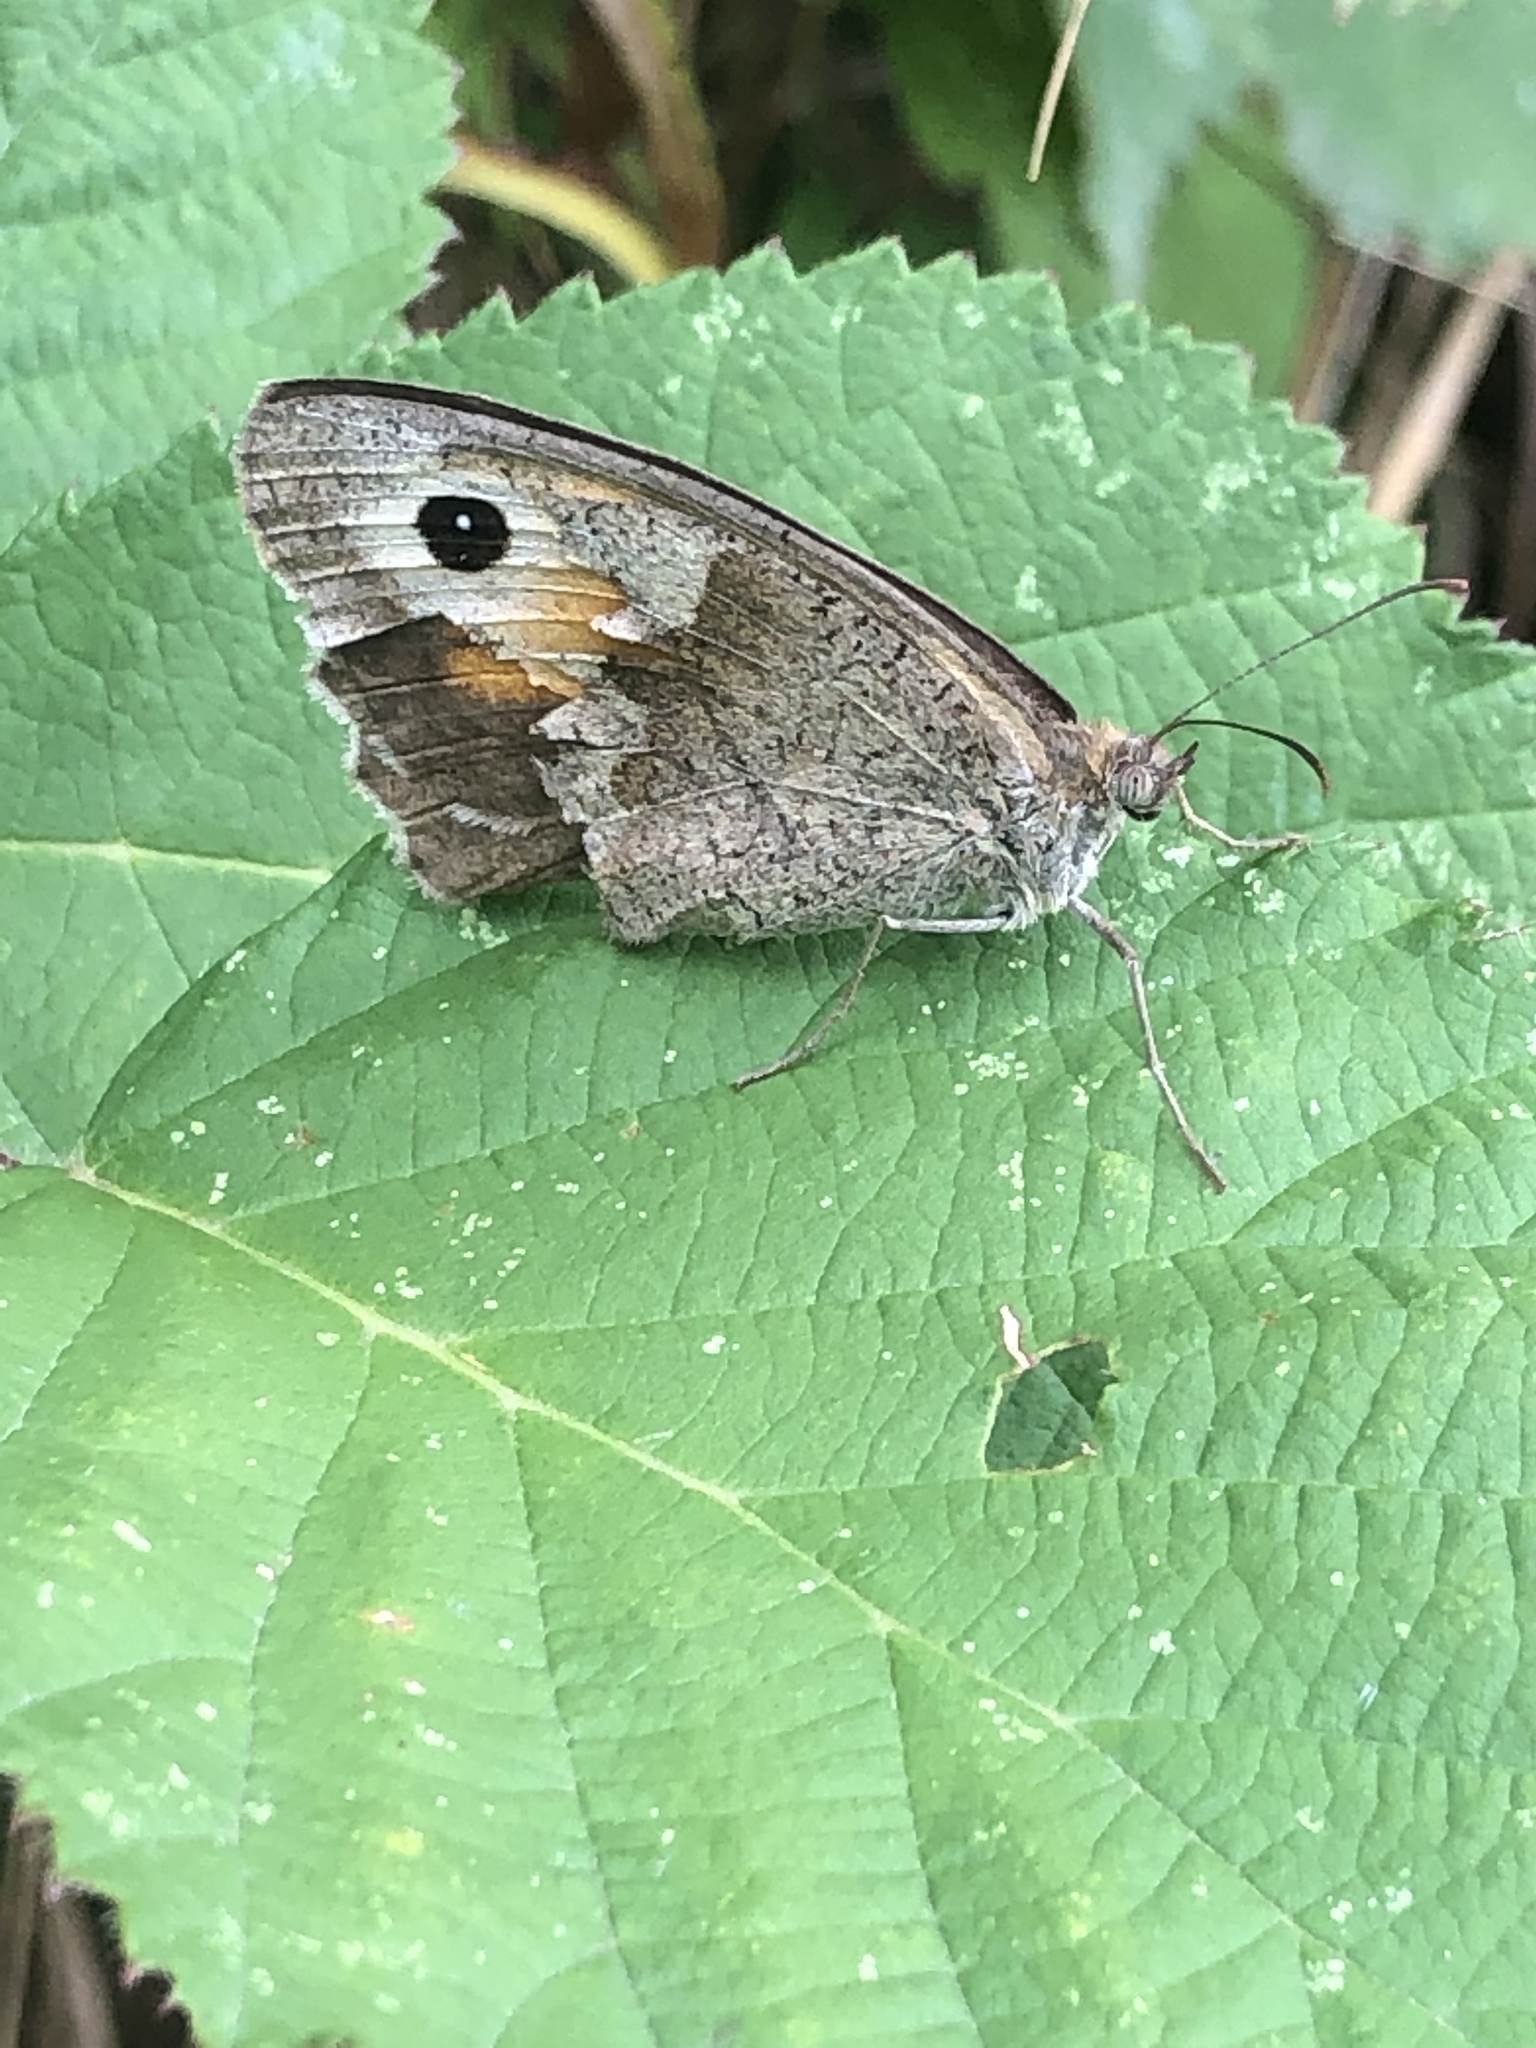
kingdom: Animalia
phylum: Arthropoda
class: Insecta
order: Lepidoptera
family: Nymphalidae
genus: Maniola
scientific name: Maniola jurtina
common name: Meadow brown
